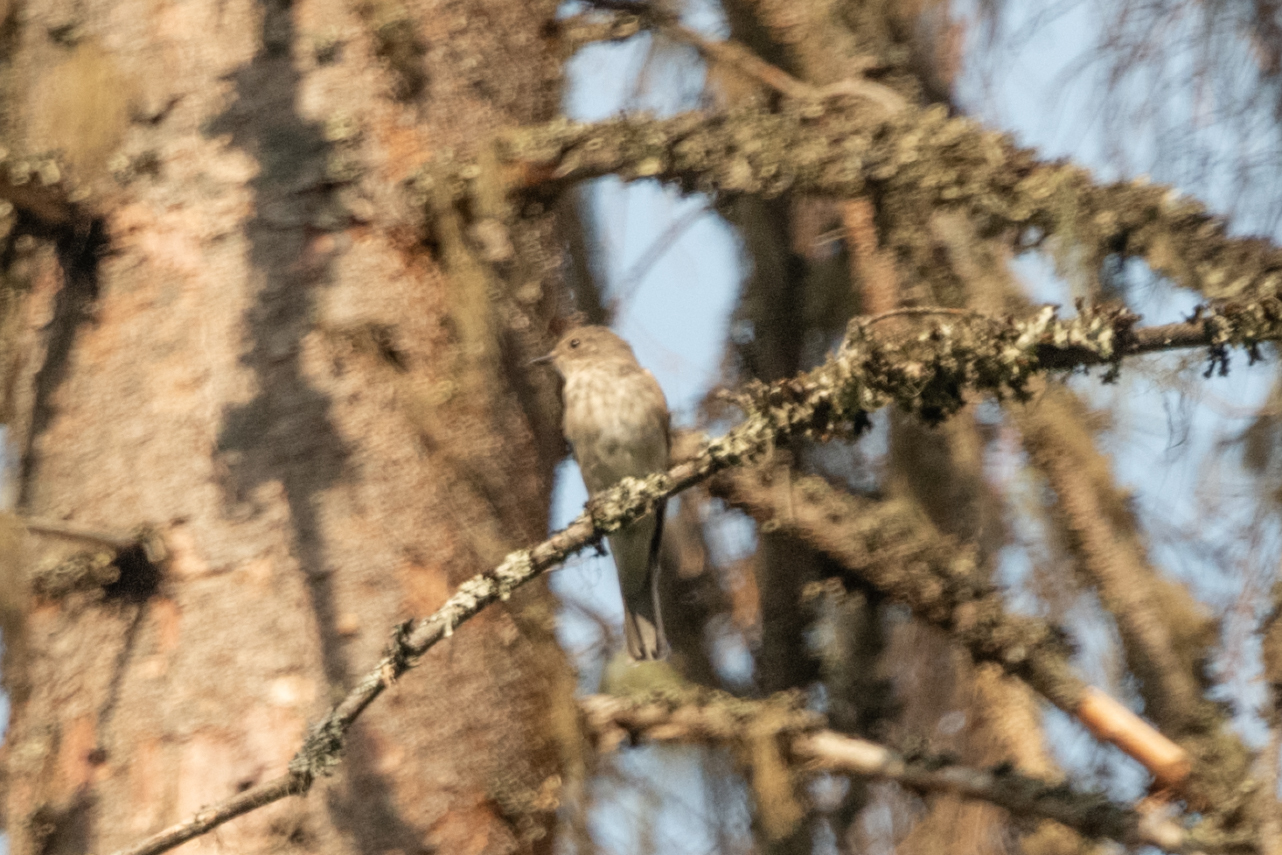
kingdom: Animalia
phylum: Chordata
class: Aves
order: Passeriformes
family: Muscicapidae
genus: Muscicapa
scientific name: Muscicapa striata
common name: Spotted flycatcher
